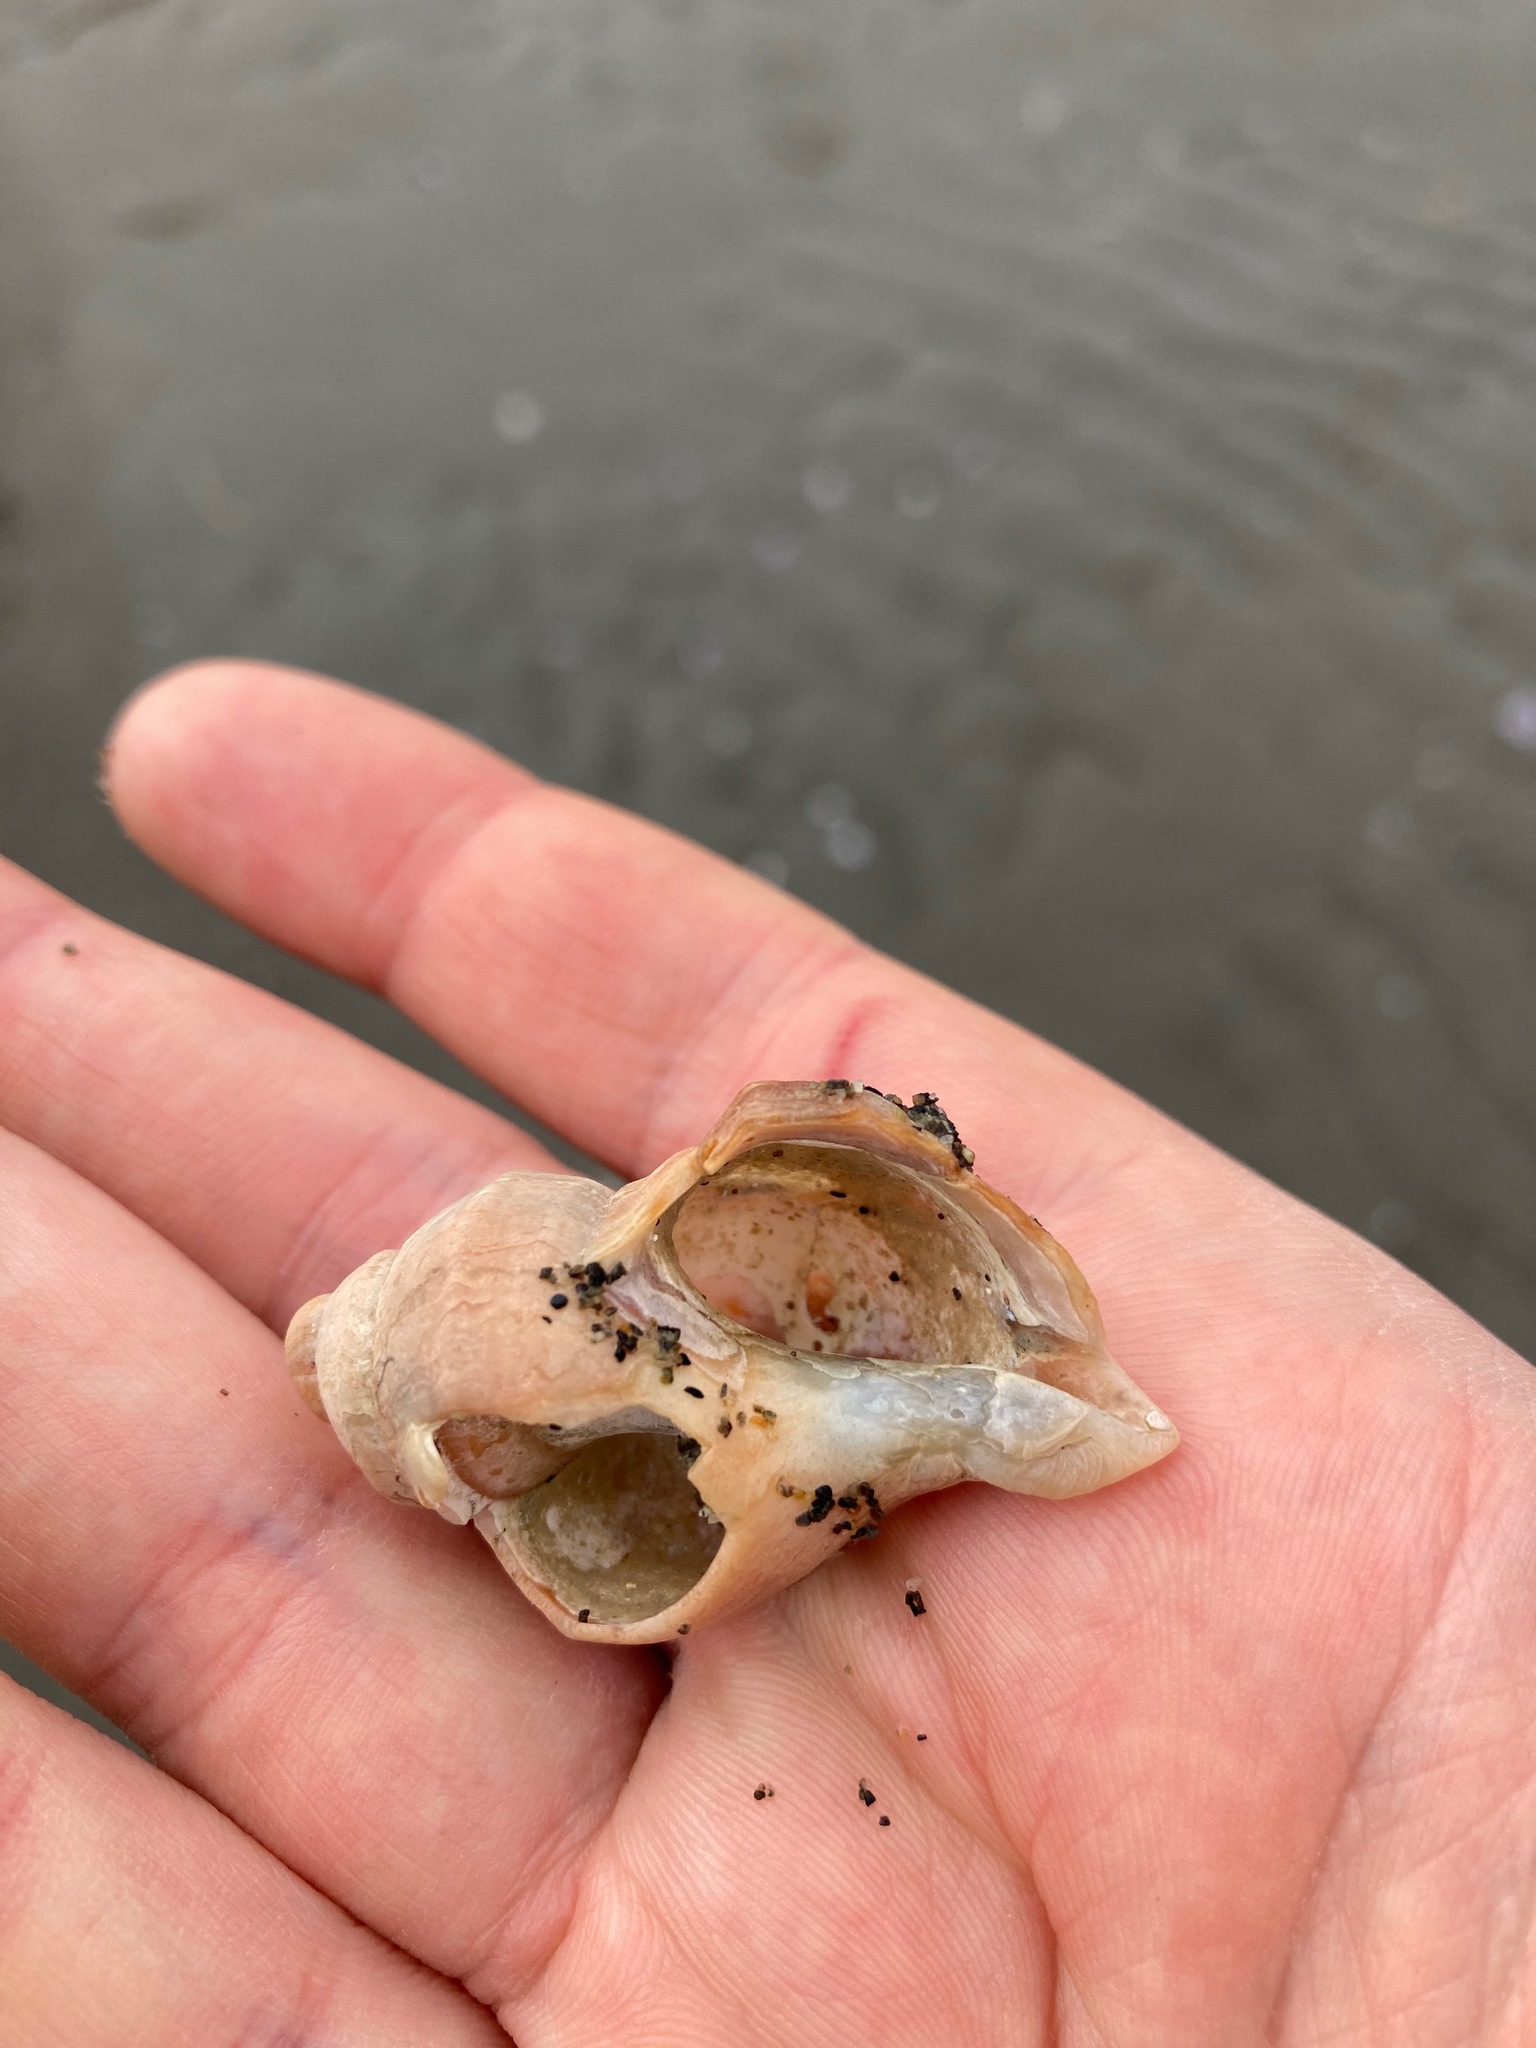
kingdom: Animalia
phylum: Mollusca
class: Gastropoda
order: Neogastropoda
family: Muricidae
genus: Nucella
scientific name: Nucella lamellosa
